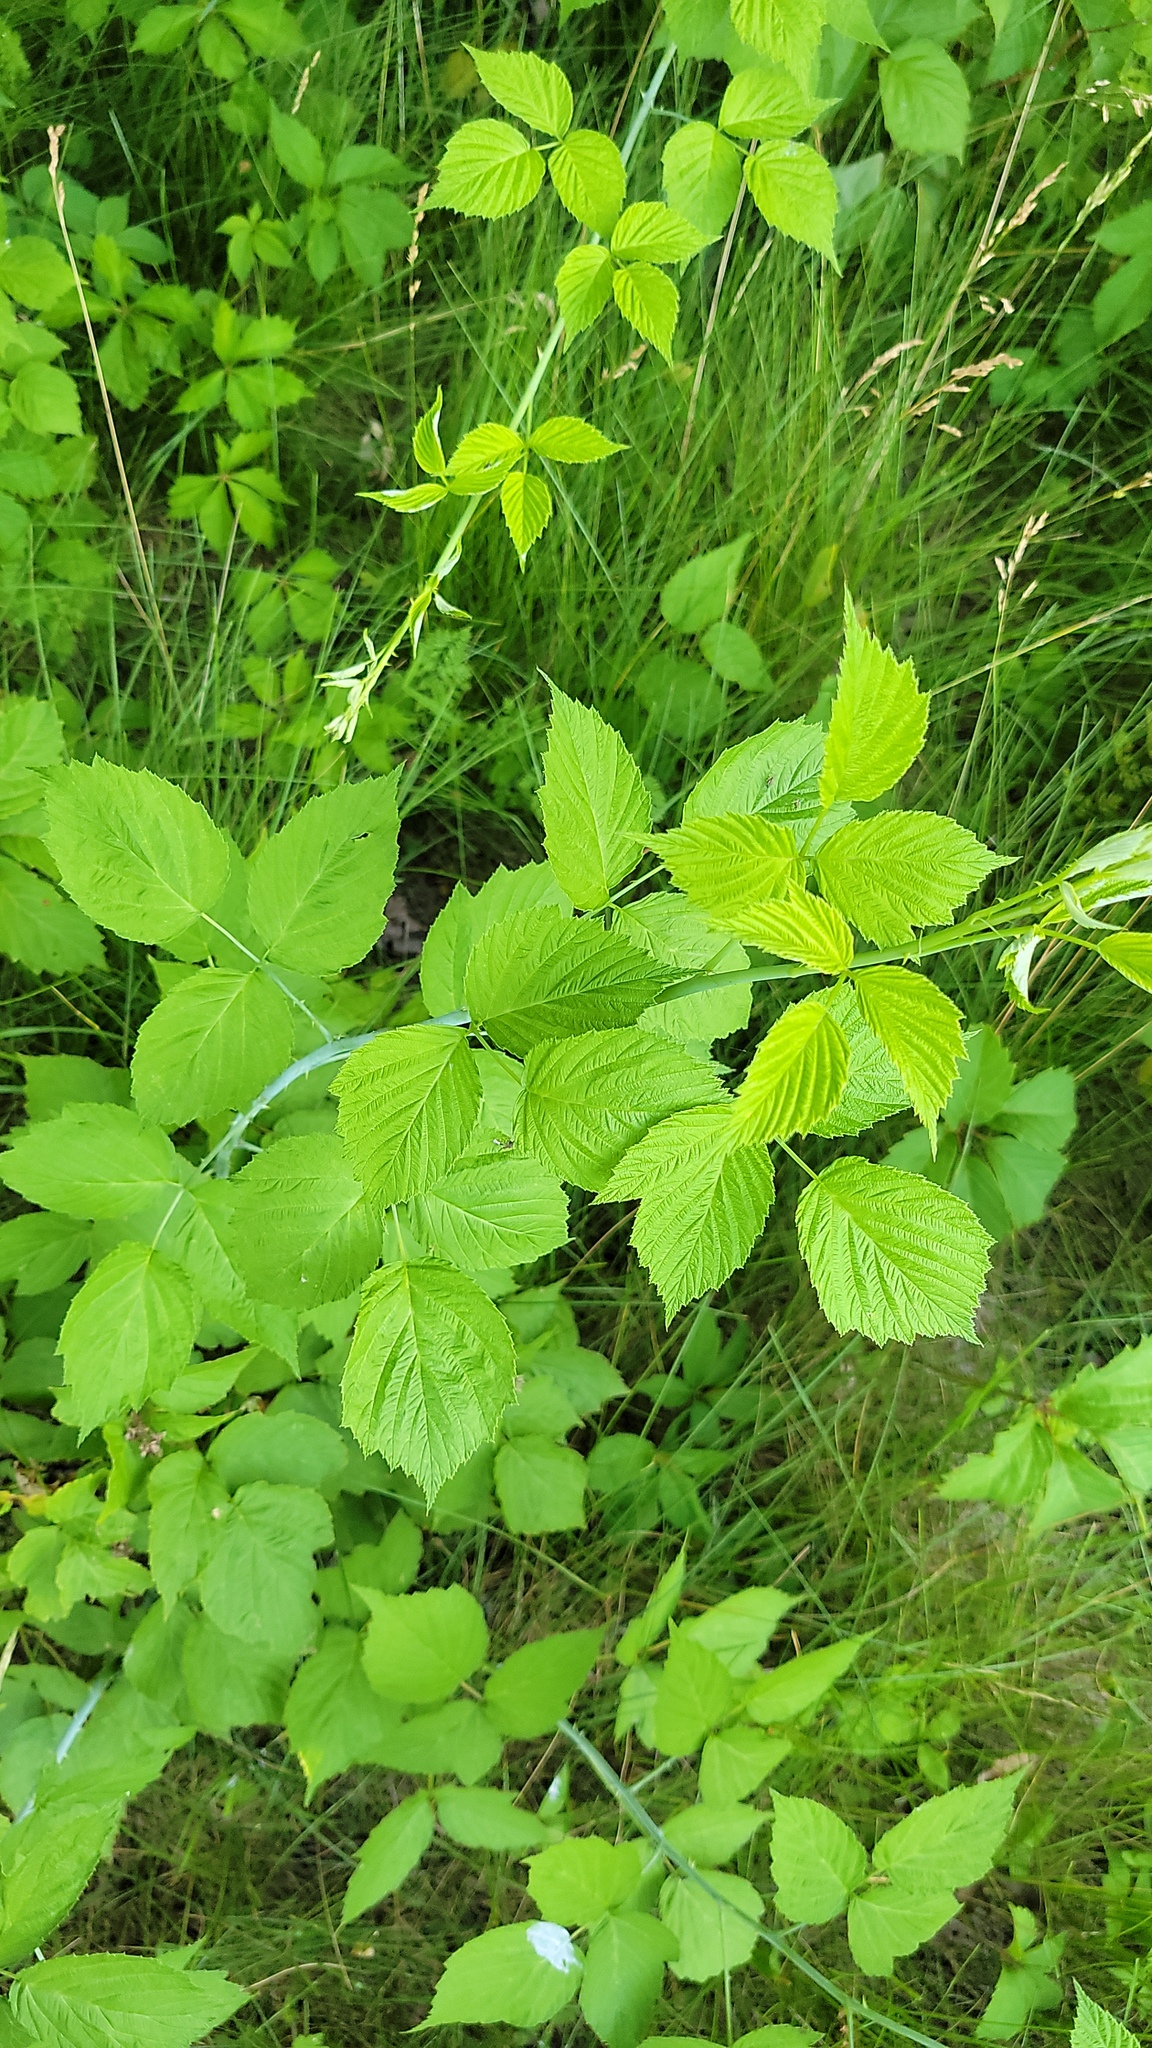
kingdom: Plantae
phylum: Tracheophyta
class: Magnoliopsida
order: Rosales
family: Rosaceae
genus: Rubus
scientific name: Rubus occidentalis
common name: Black raspberry
